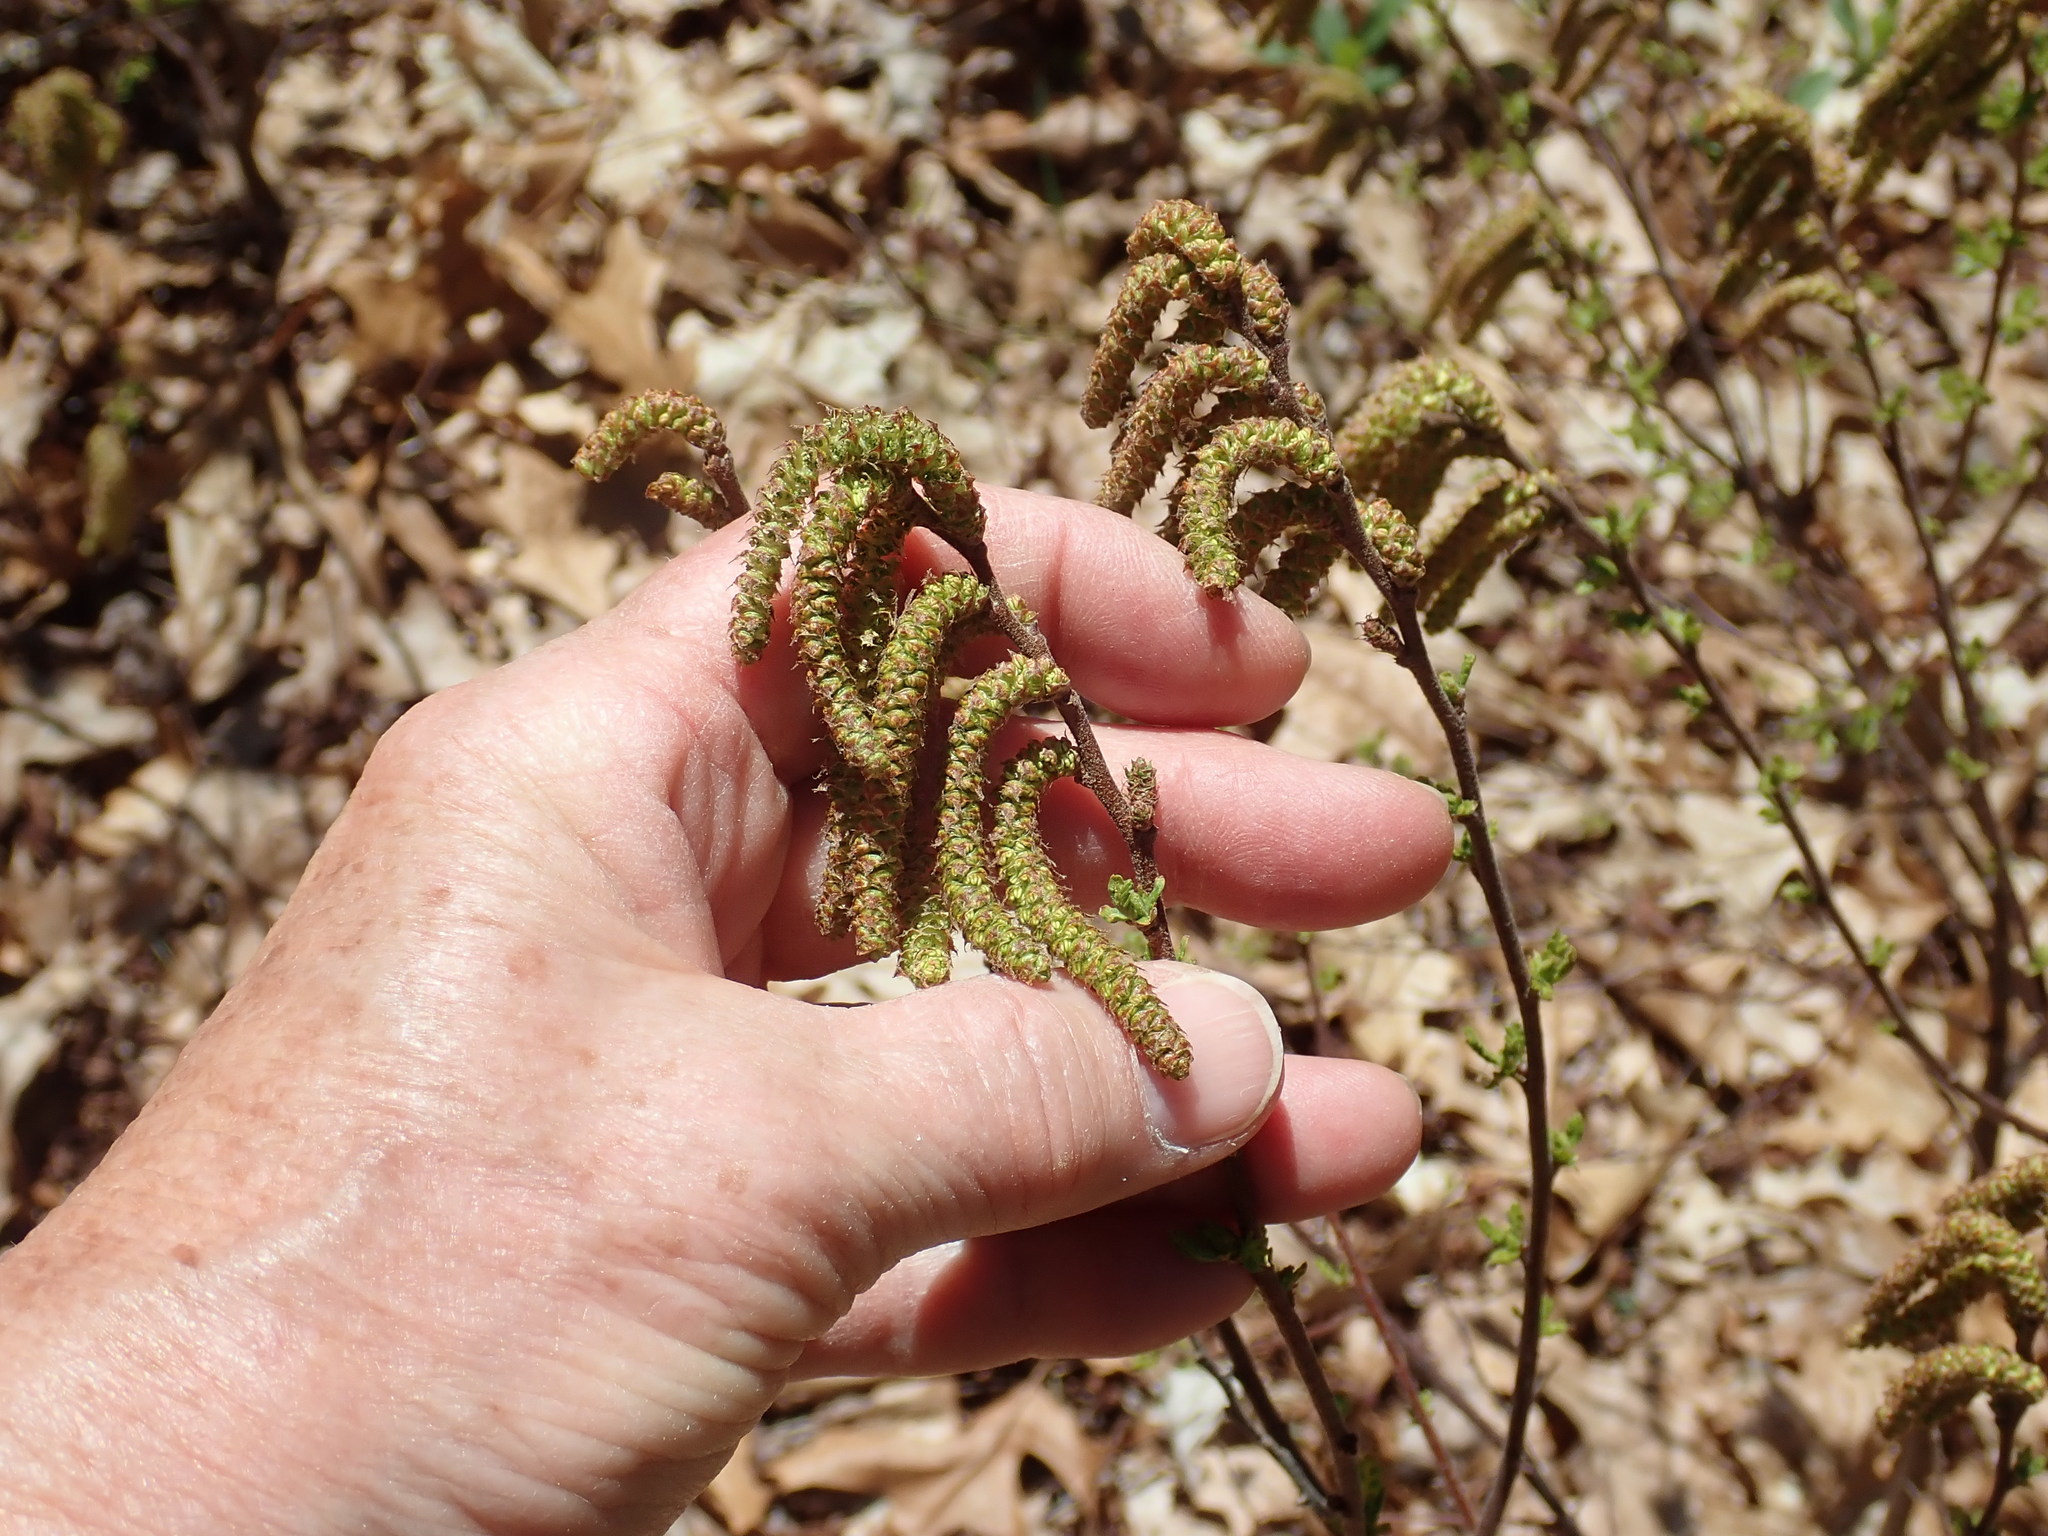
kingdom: Plantae
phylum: Tracheophyta
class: Magnoliopsida
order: Fagales
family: Myricaceae
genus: Comptonia
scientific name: Comptonia peregrina
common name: Sweet-fern
